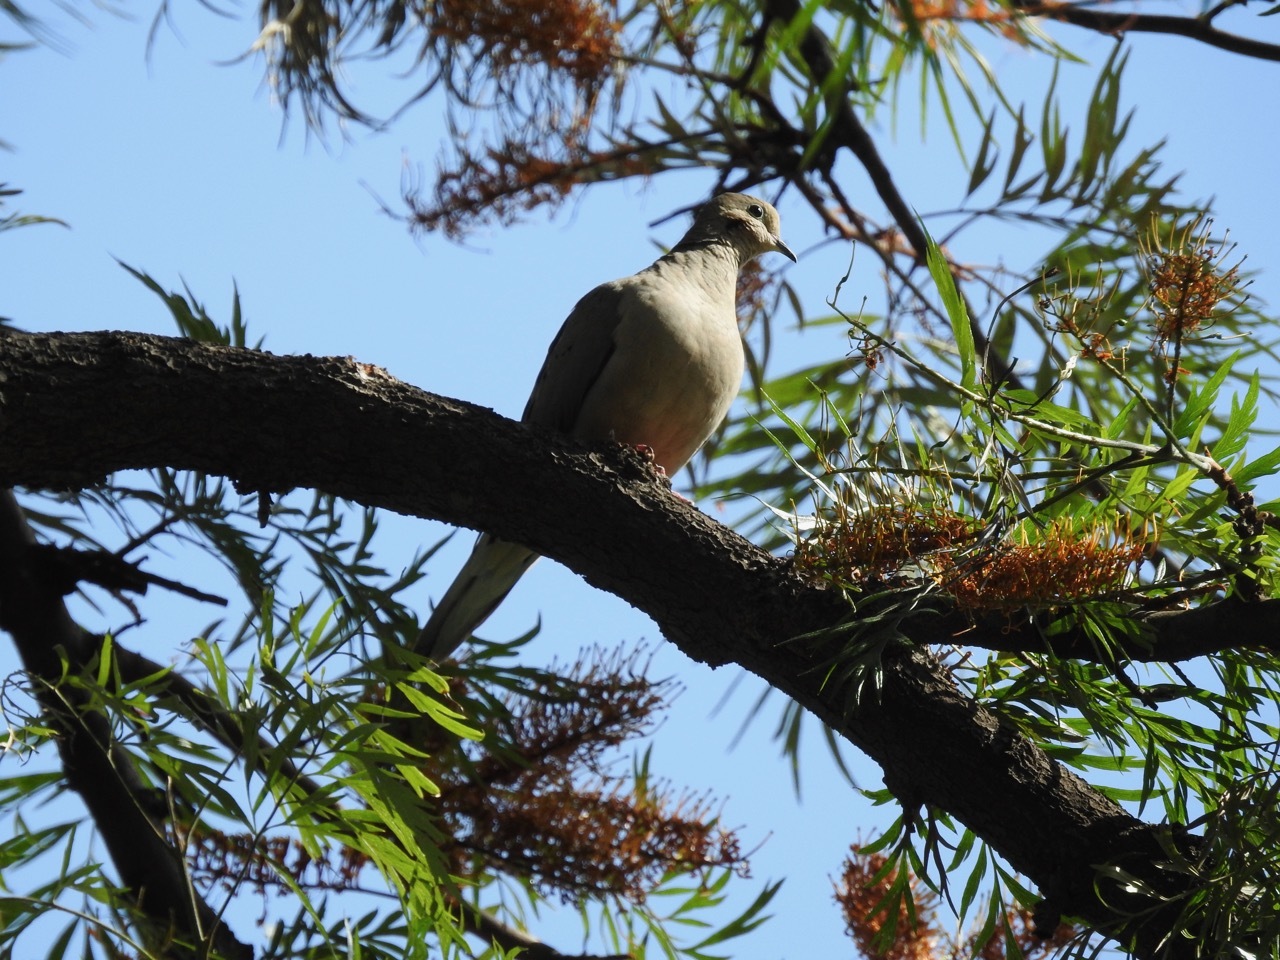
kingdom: Animalia
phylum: Chordata
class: Aves
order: Columbiformes
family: Columbidae
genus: Zenaida
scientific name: Zenaida macroura
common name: Mourning dove
